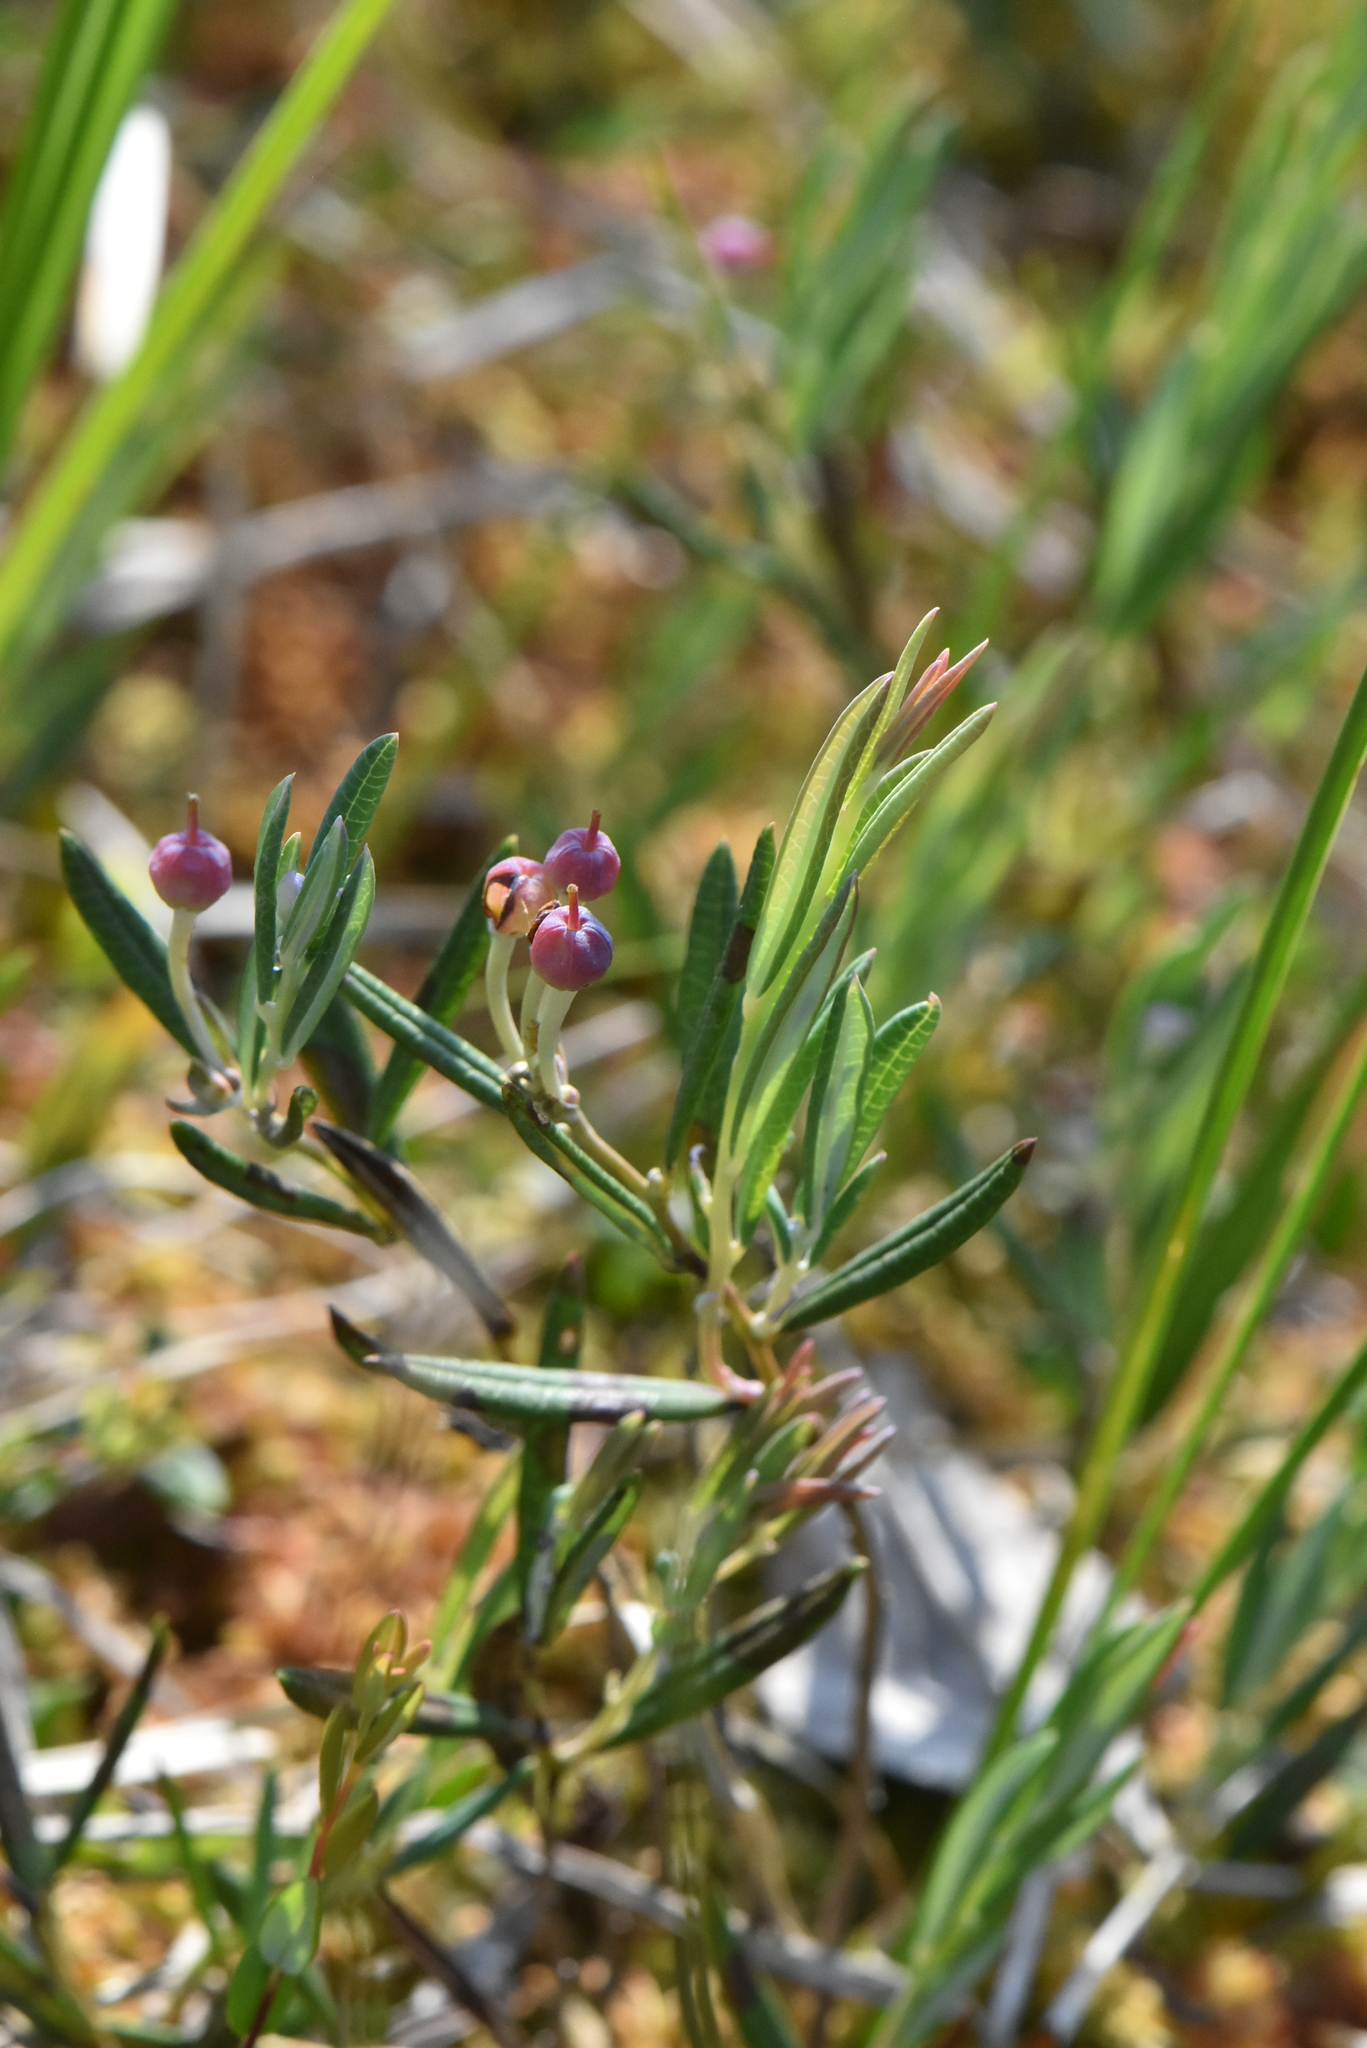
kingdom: Plantae
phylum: Tracheophyta
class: Magnoliopsida
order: Ericales
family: Ericaceae
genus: Andromeda
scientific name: Andromeda polifolia
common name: Bog-rosemary
